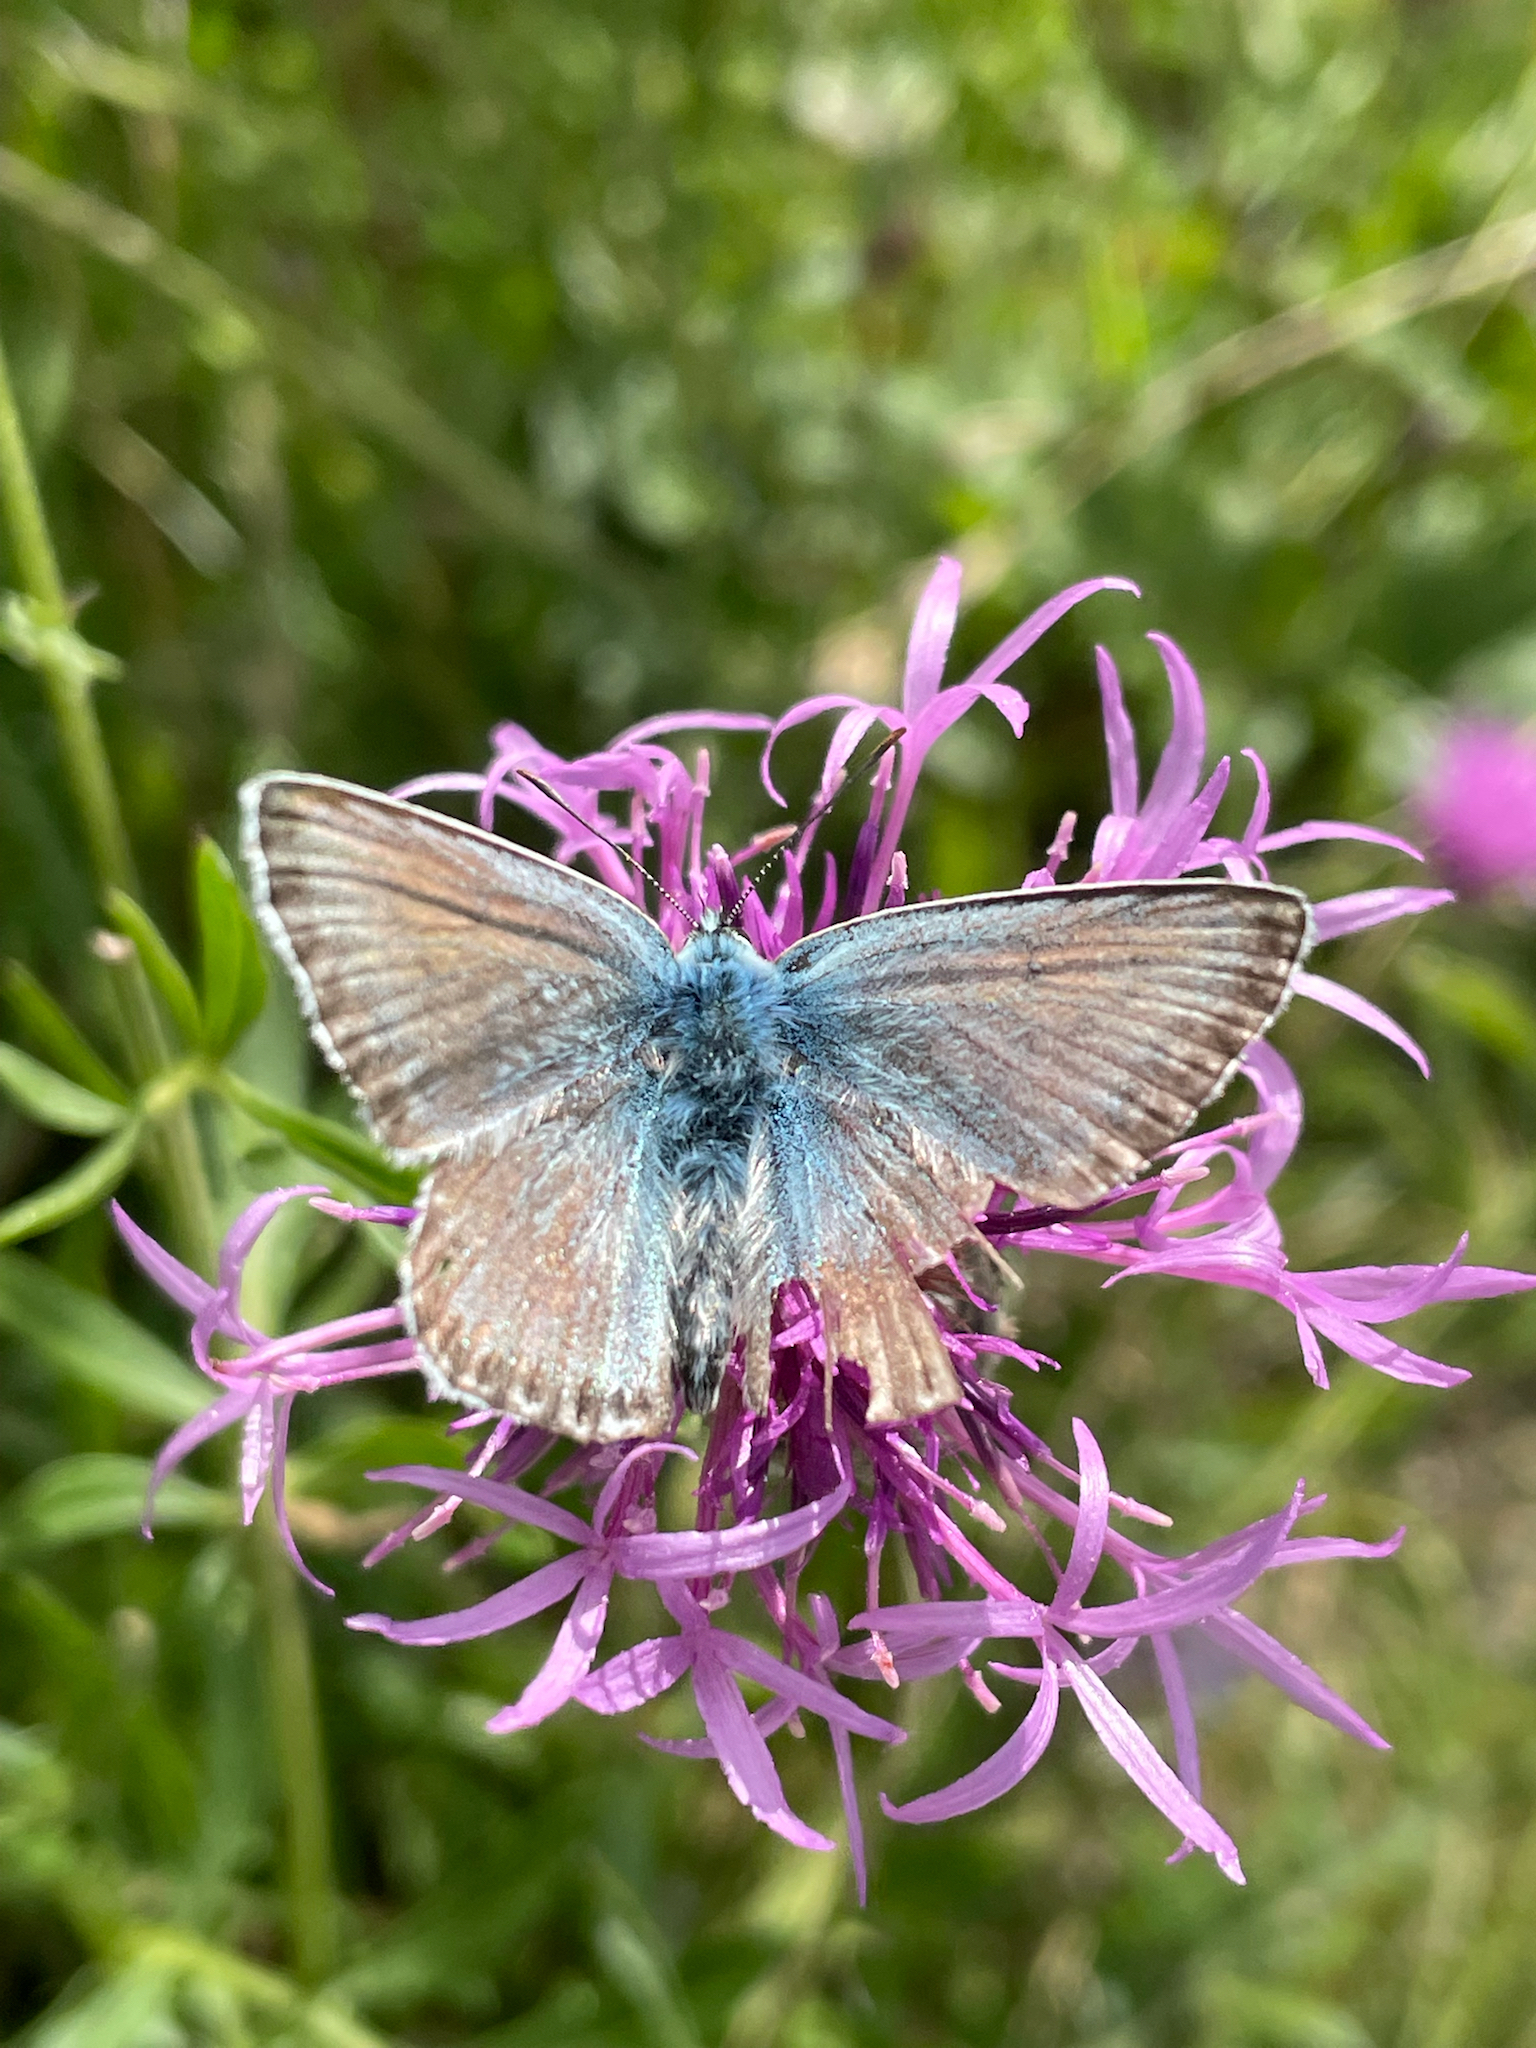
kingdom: Animalia
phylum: Arthropoda
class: Insecta
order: Lepidoptera
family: Lycaenidae
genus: Lysandra
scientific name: Lysandra coridon
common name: Chalkhill blue
